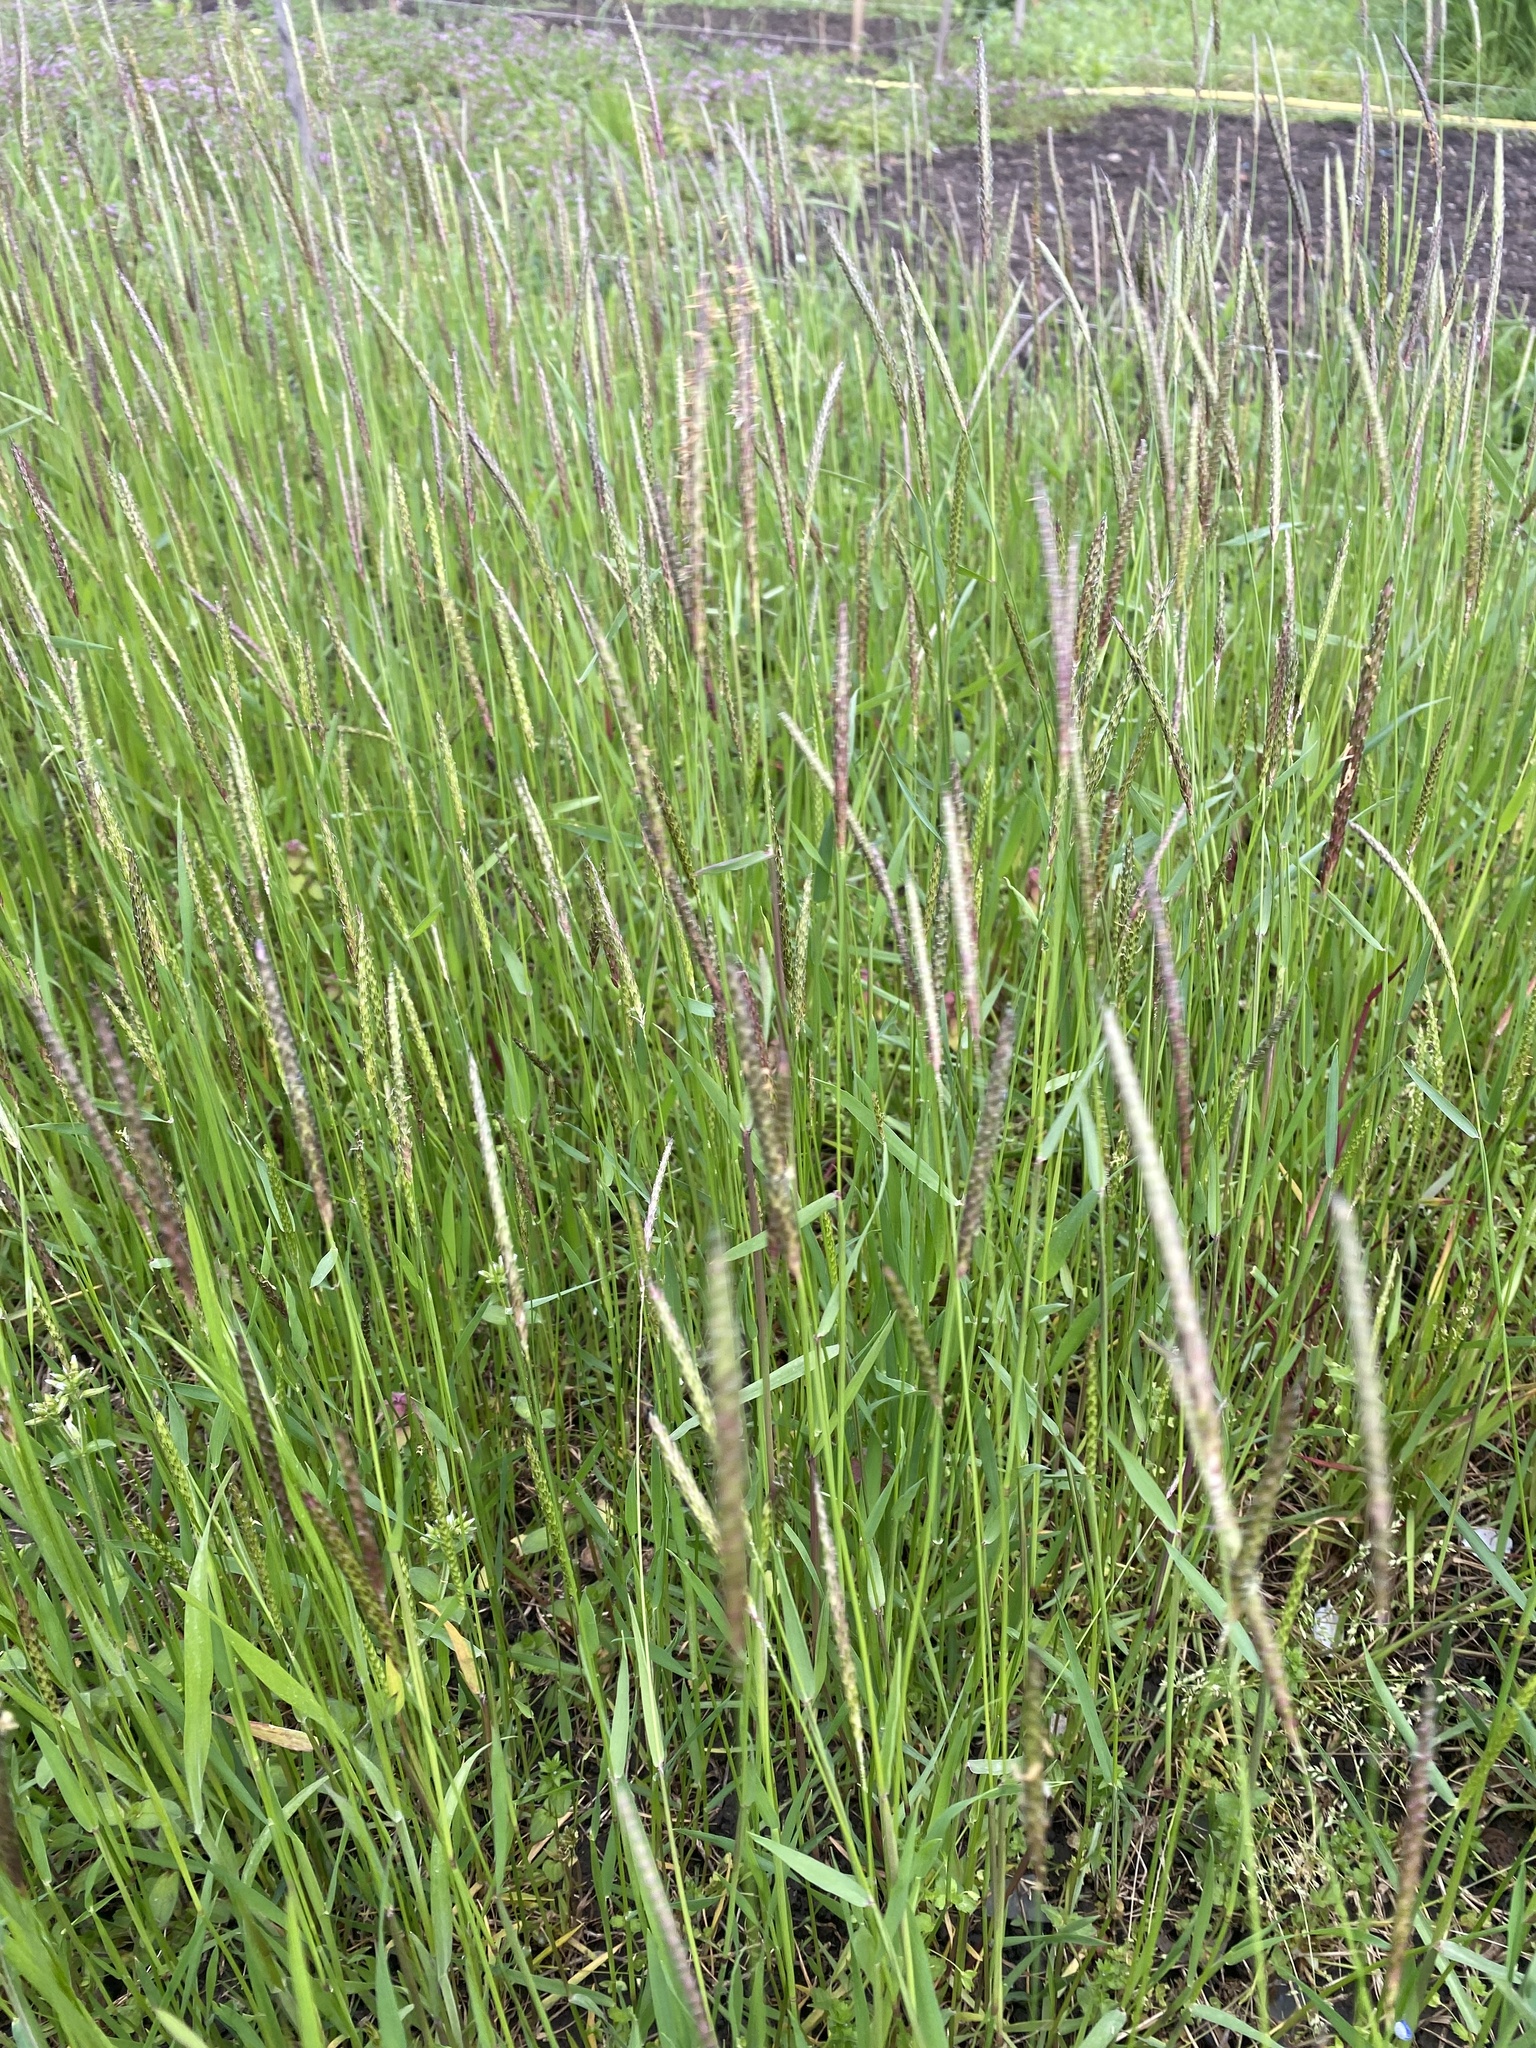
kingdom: Plantae
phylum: Tracheophyta
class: Liliopsida
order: Poales
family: Poaceae
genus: Alopecurus
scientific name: Alopecurus myosuroides
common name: Black-grass
